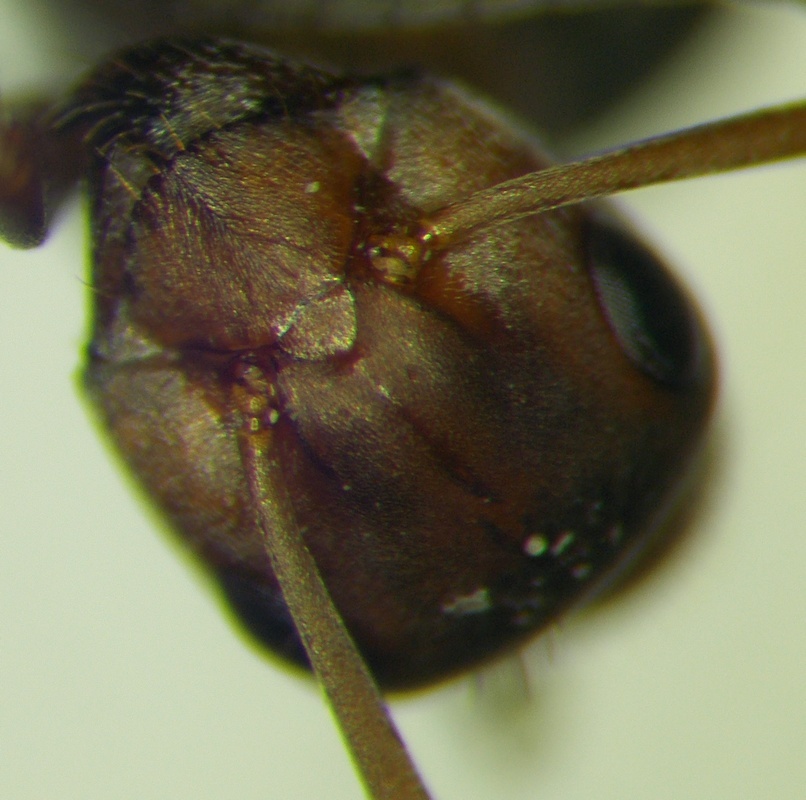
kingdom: Animalia
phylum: Arthropoda
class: Insecta
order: Hymenoptera
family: Formicidae
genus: Formica
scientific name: Formica subpilosa
